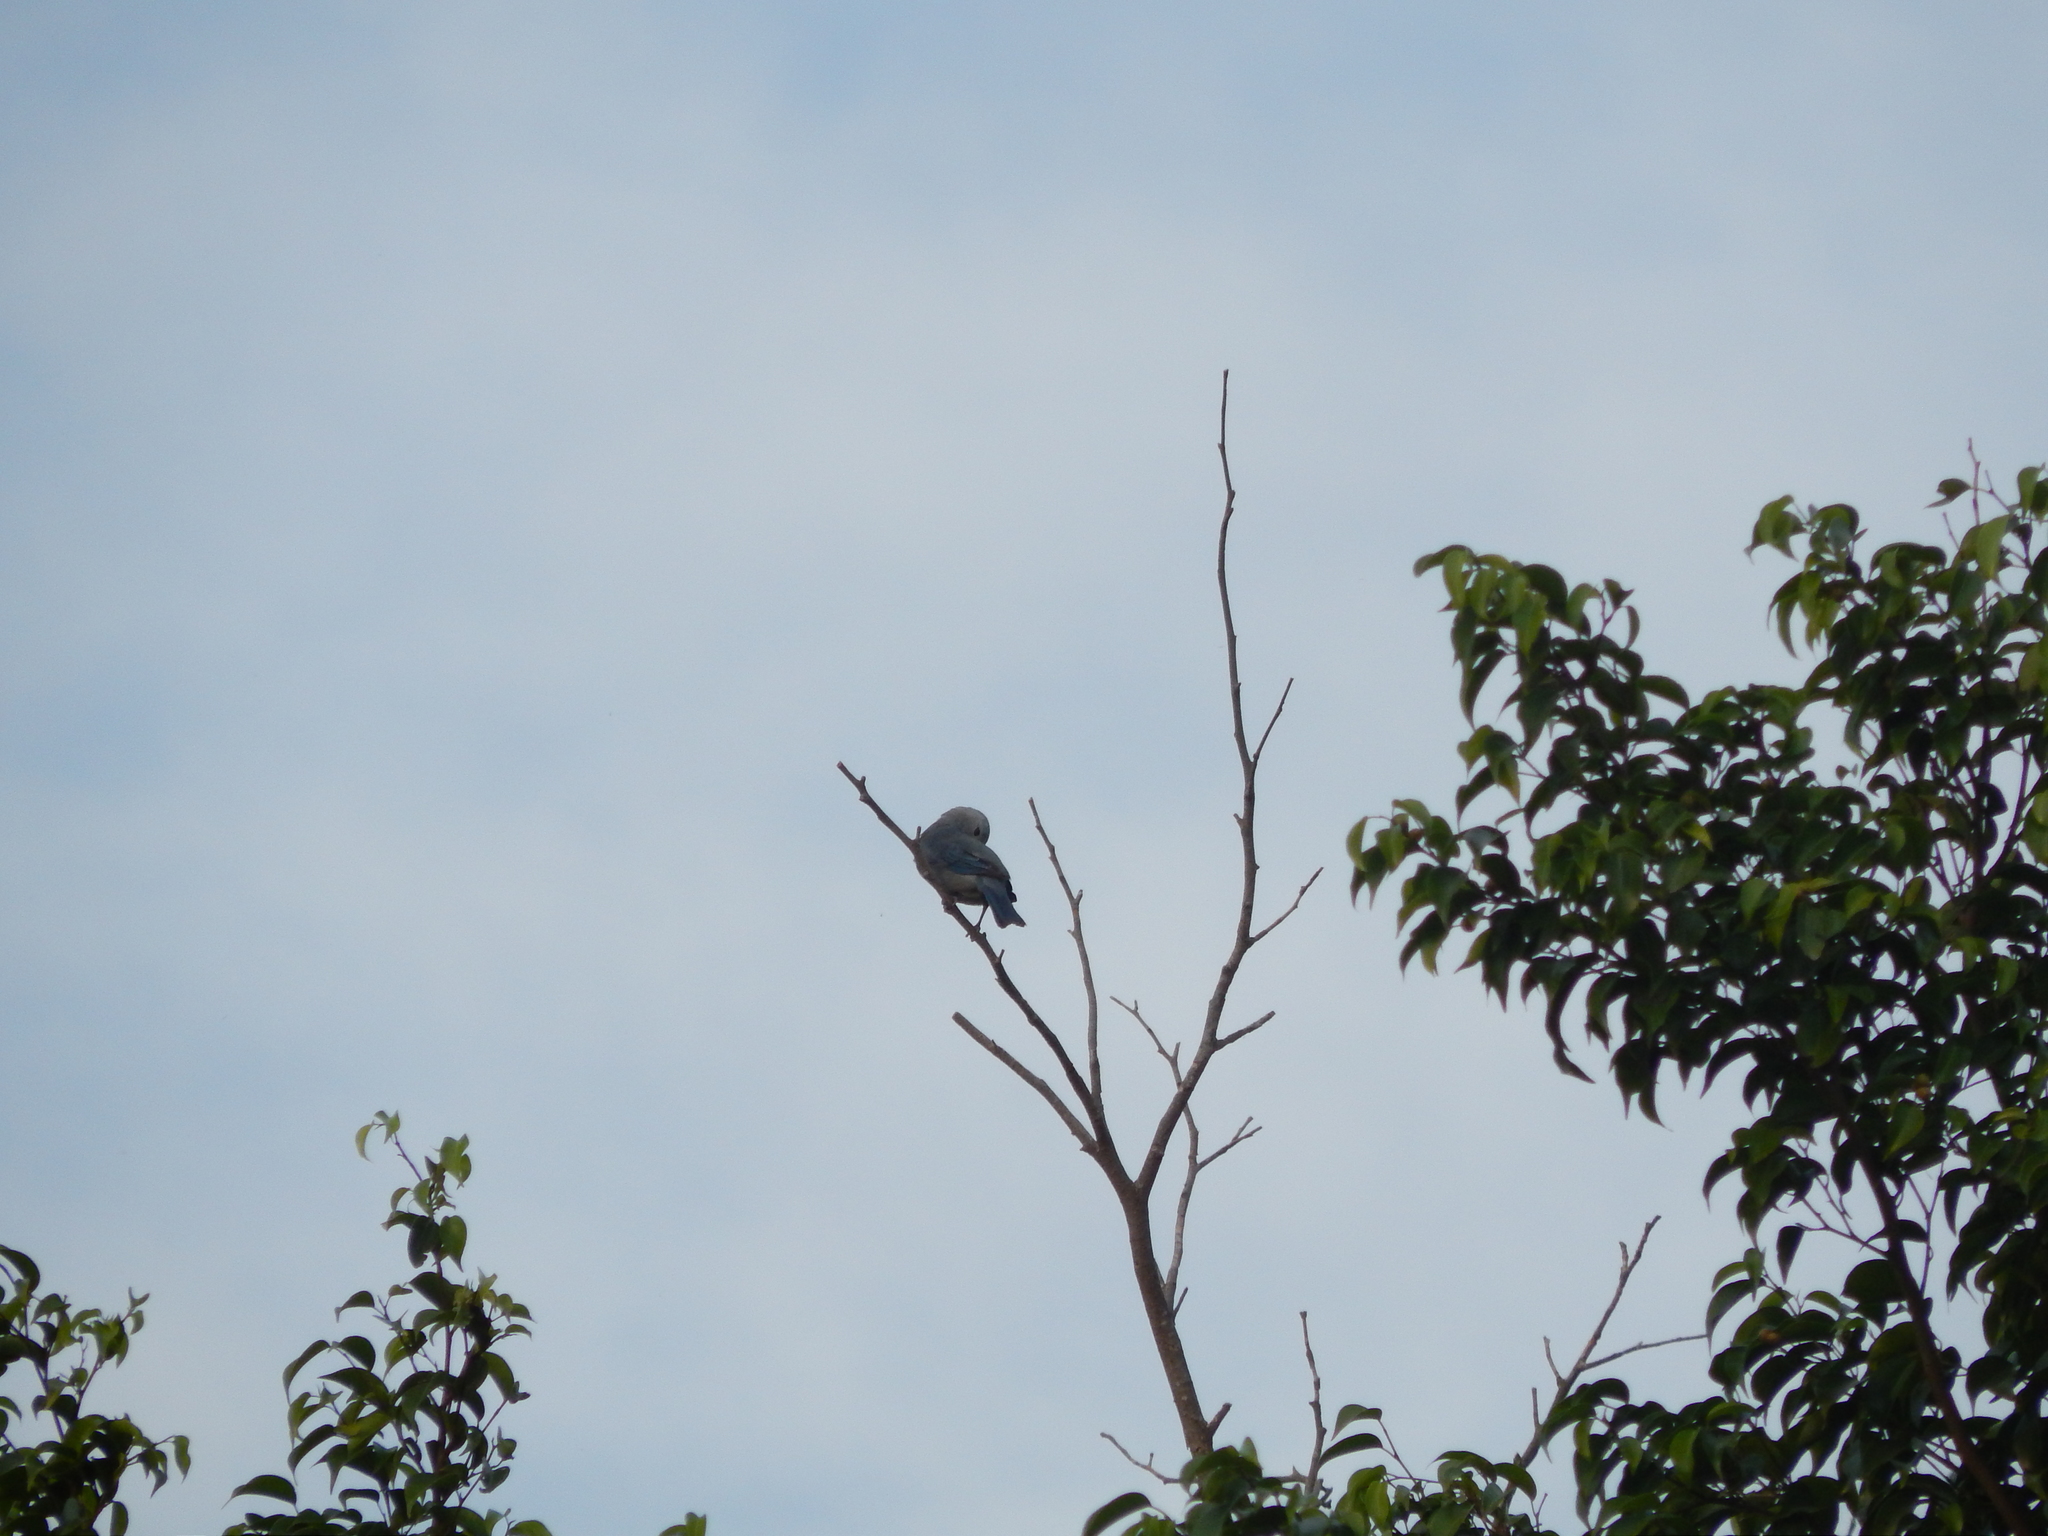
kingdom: Animalia
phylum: Chordata
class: Aves
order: Passeriformes
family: Thraupidae
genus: Thraupis
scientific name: Thraupis episcopus
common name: Blue-grey tanager
